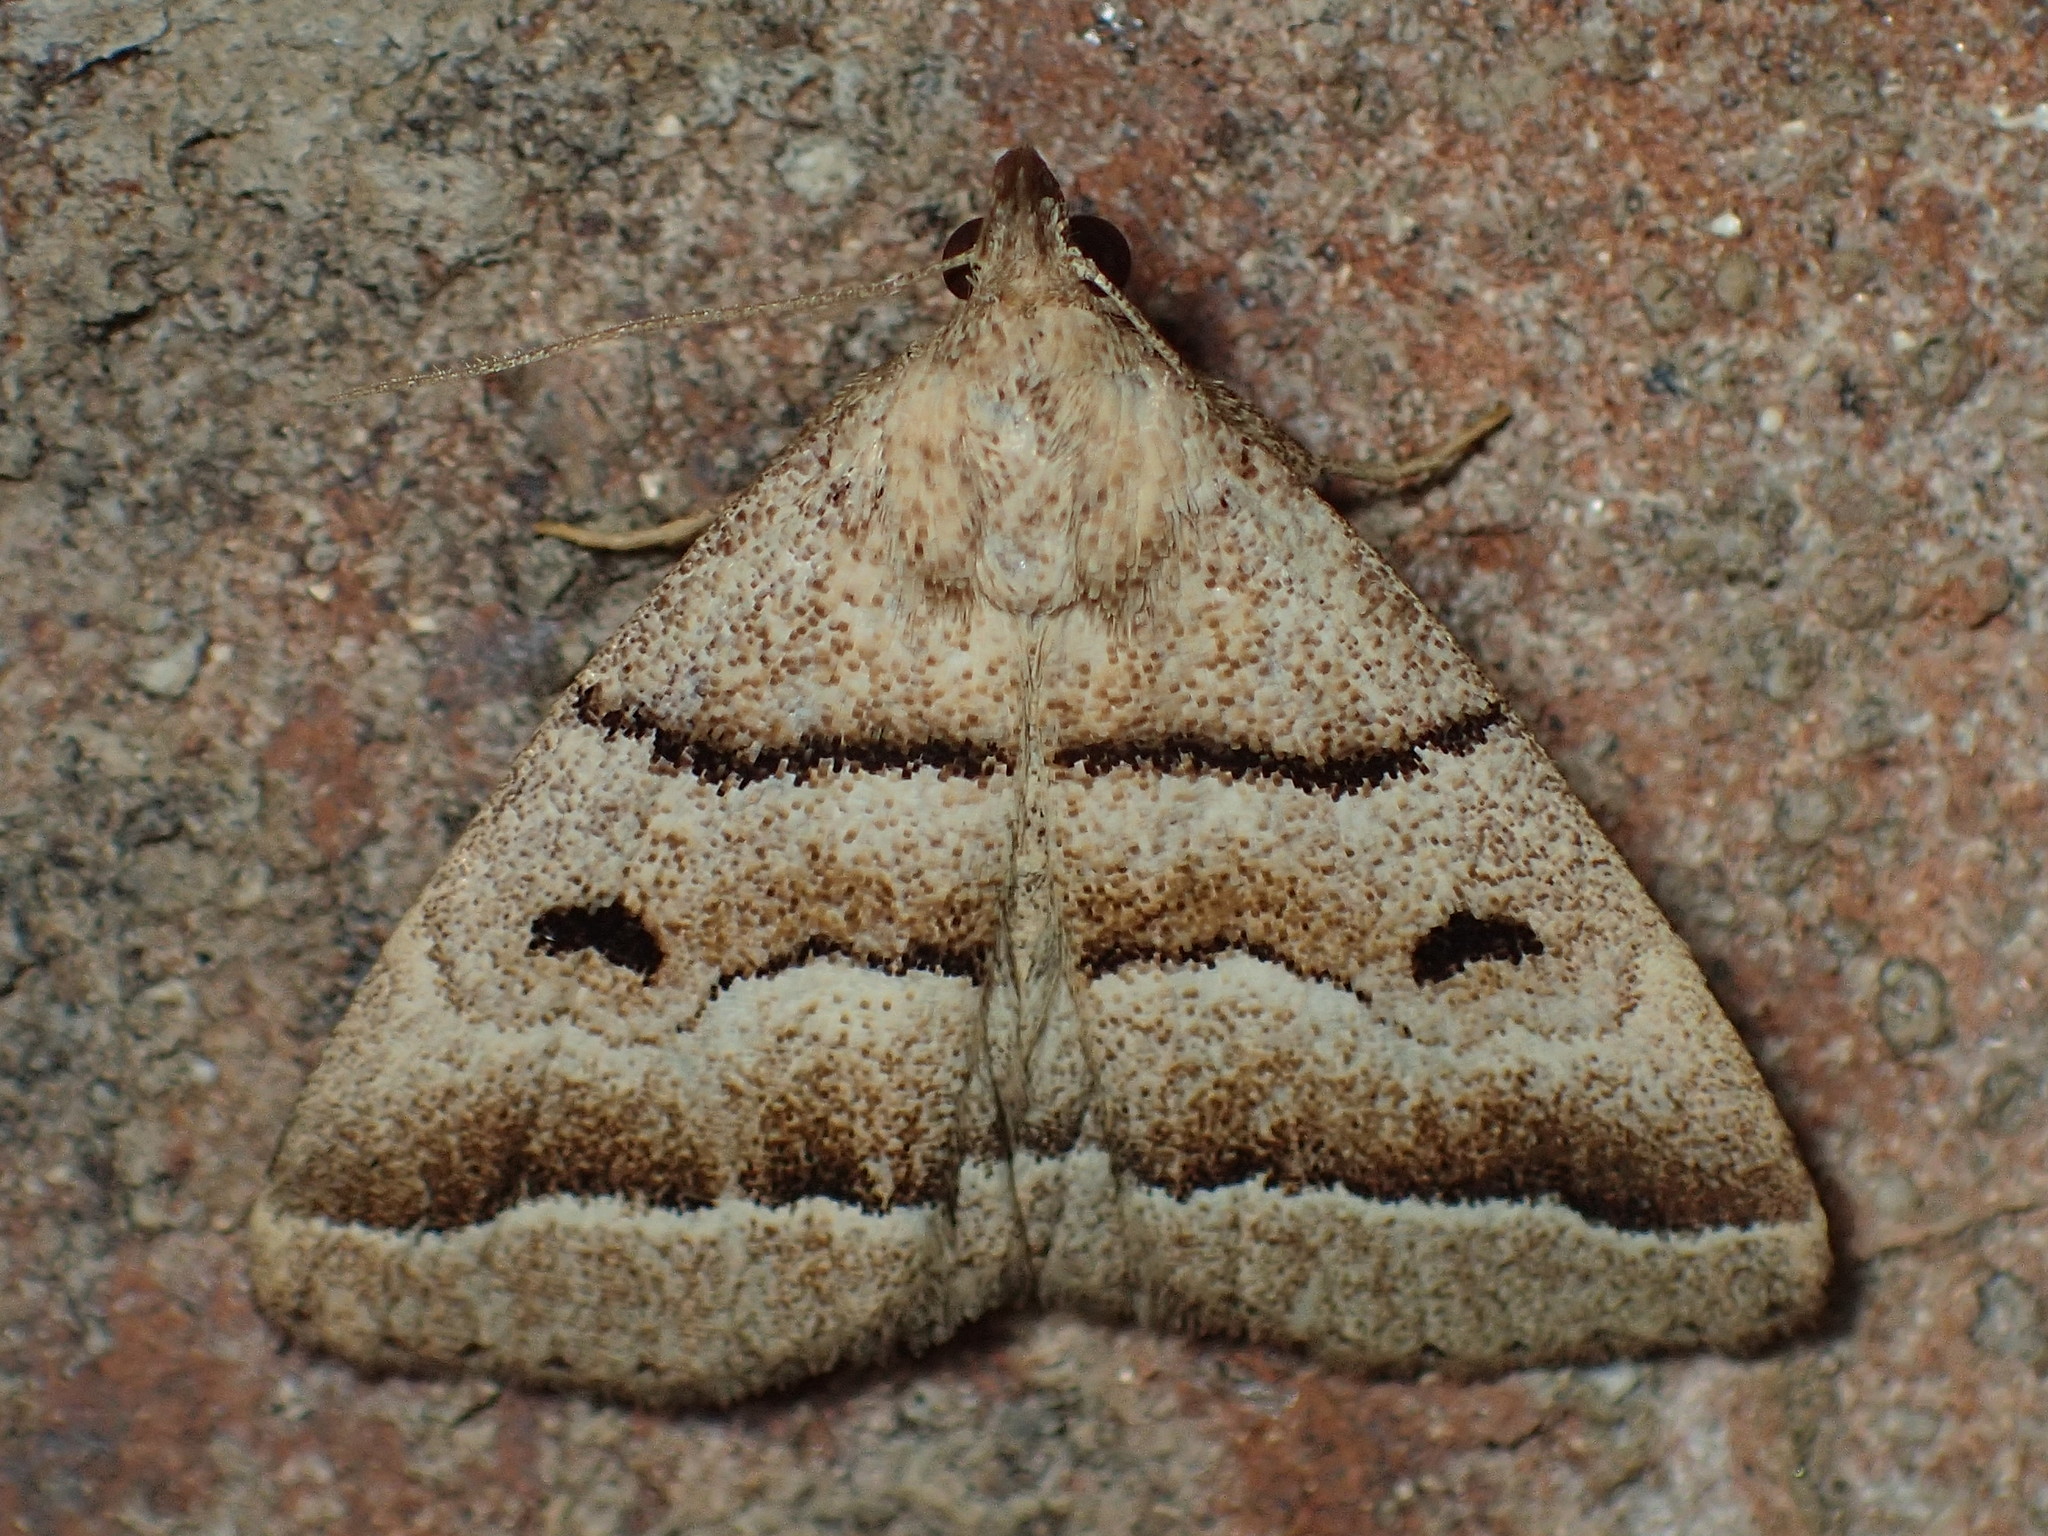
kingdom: Animalia
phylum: Arthropoda
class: Insecta
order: Lepidoptera
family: Erebidae
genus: Zanclognatha
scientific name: Zanclognatha atrilineella
